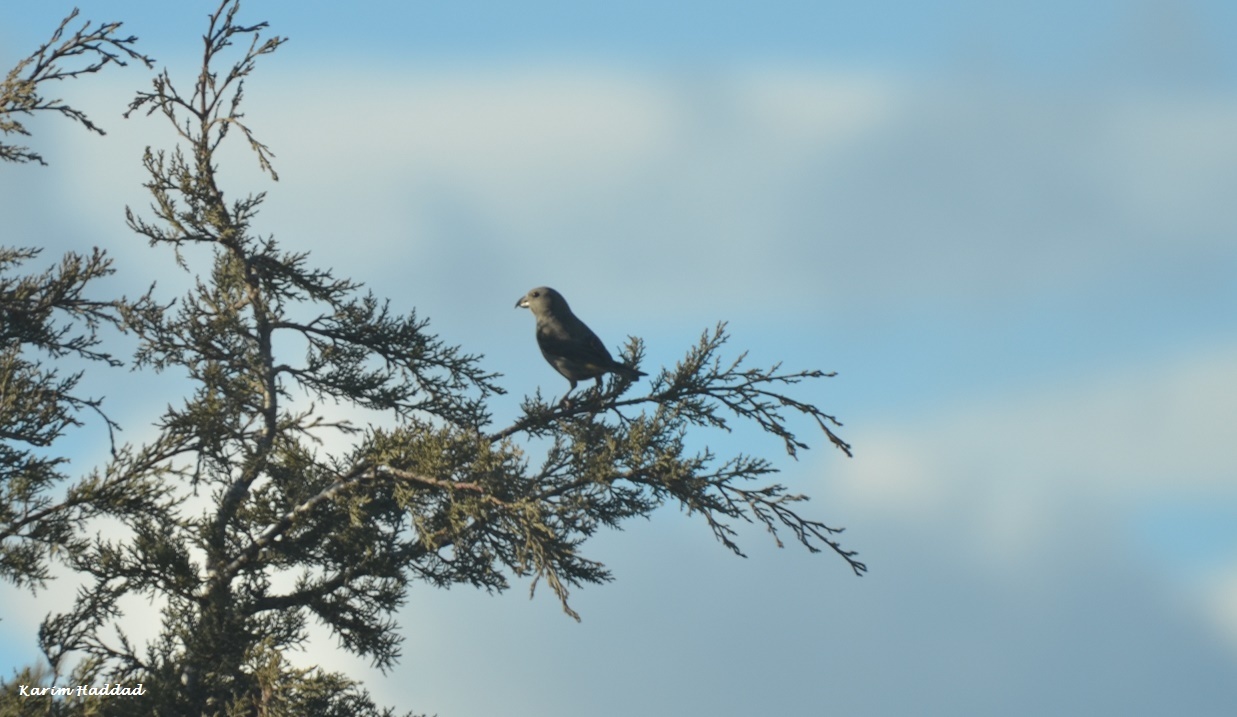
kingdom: Animalia
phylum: Chordata
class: Aves
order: Passeriformes
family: Fringillidae
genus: Loxia
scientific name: Loxia curvirostra
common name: Red crossbill
